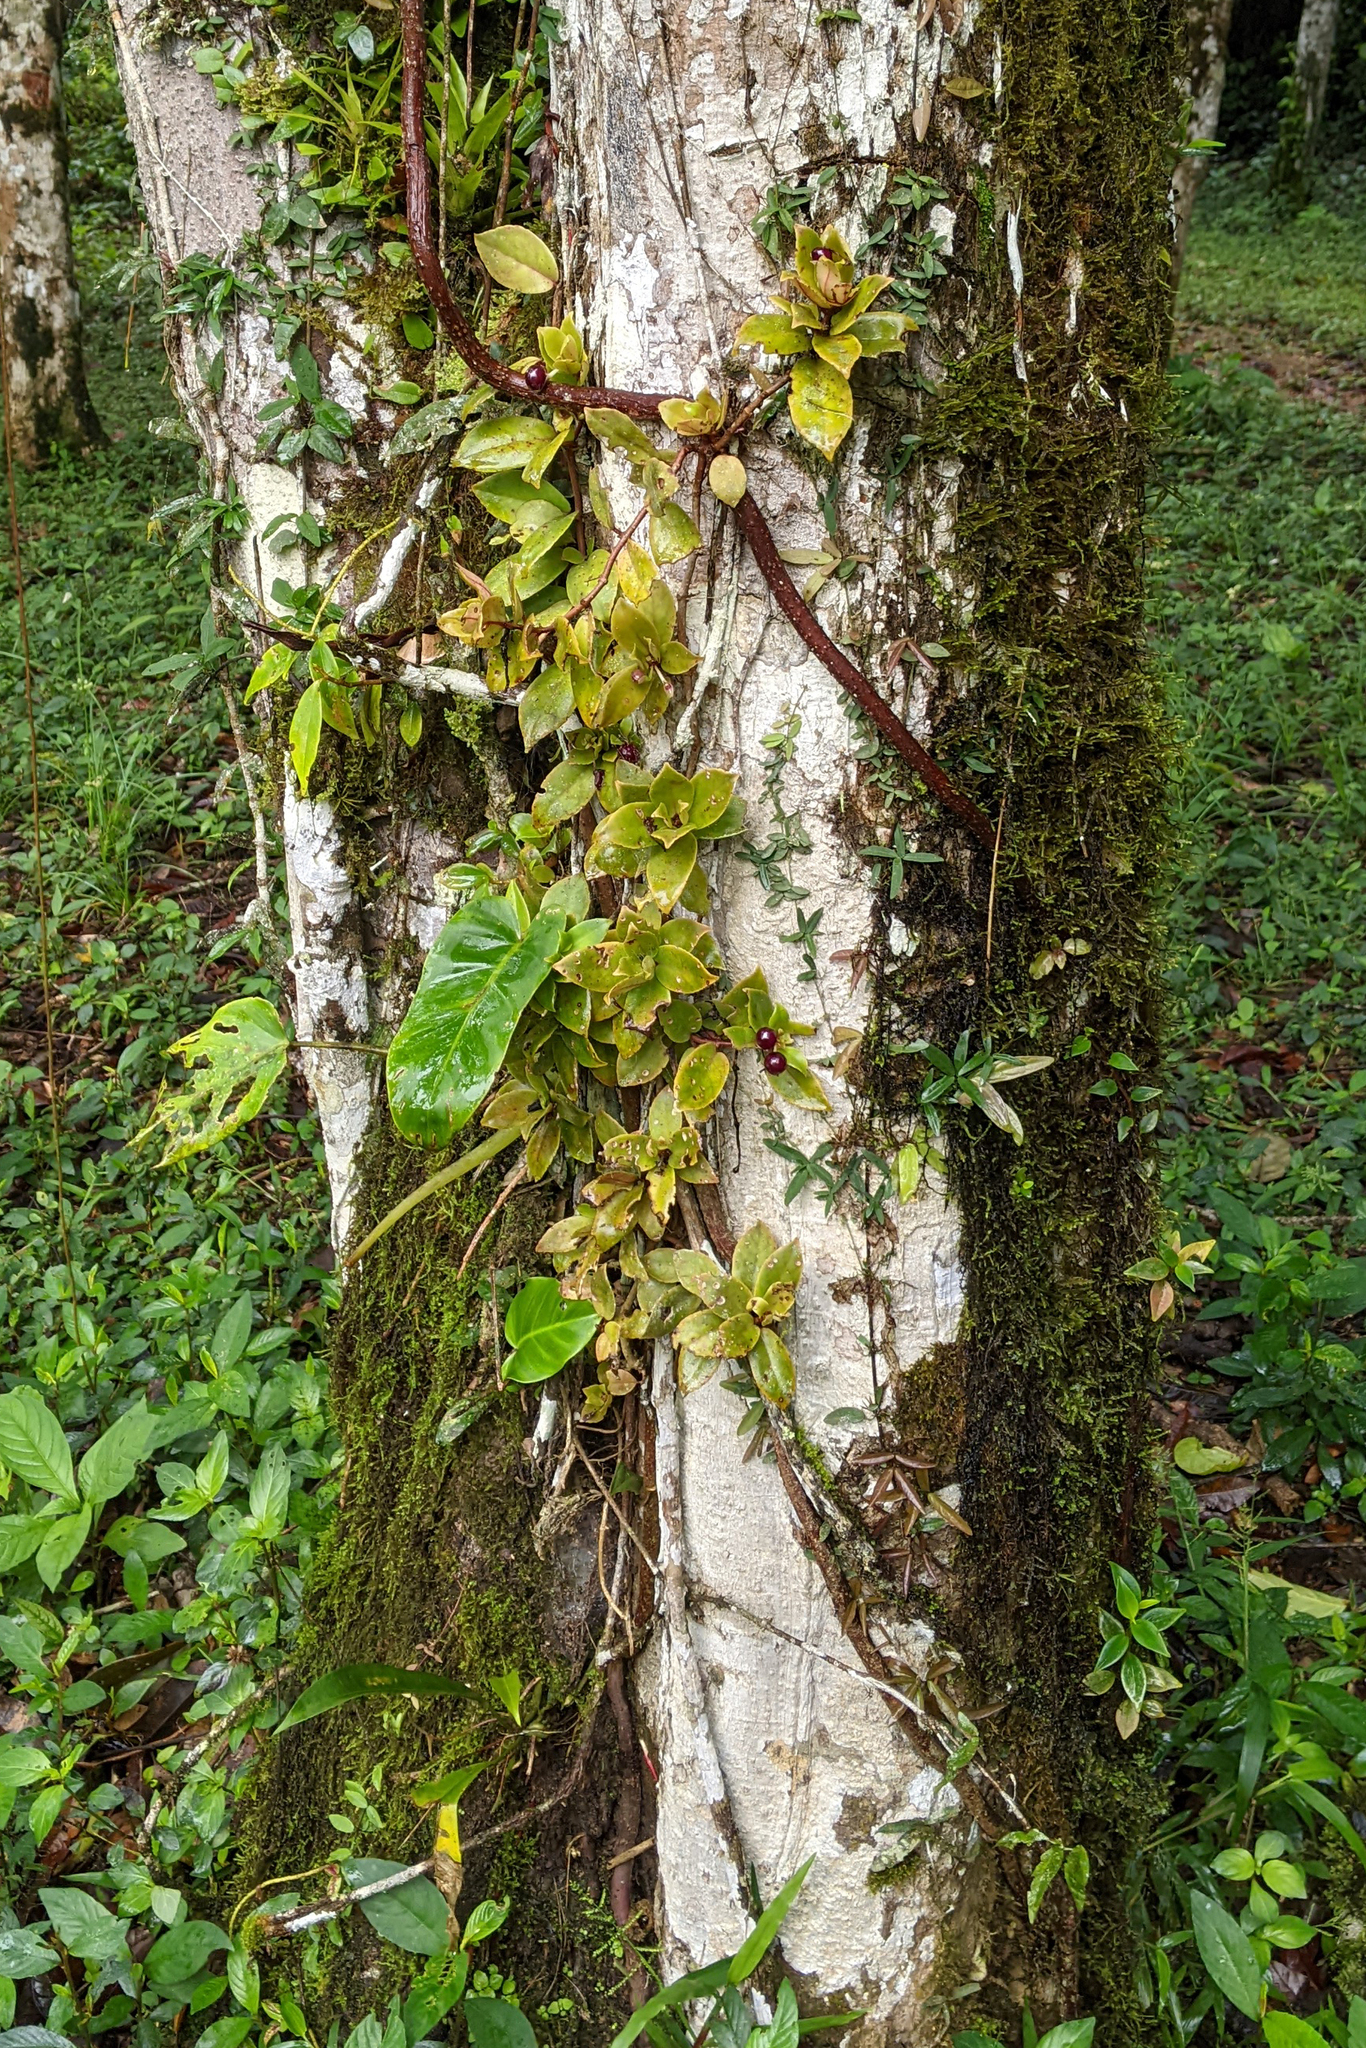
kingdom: Plantae
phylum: Tracheophyta
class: Magnoliopsida
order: Lamiales
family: Gesneriaceae
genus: Codonanthopsis
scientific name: Codonanthopsis crassifolia
